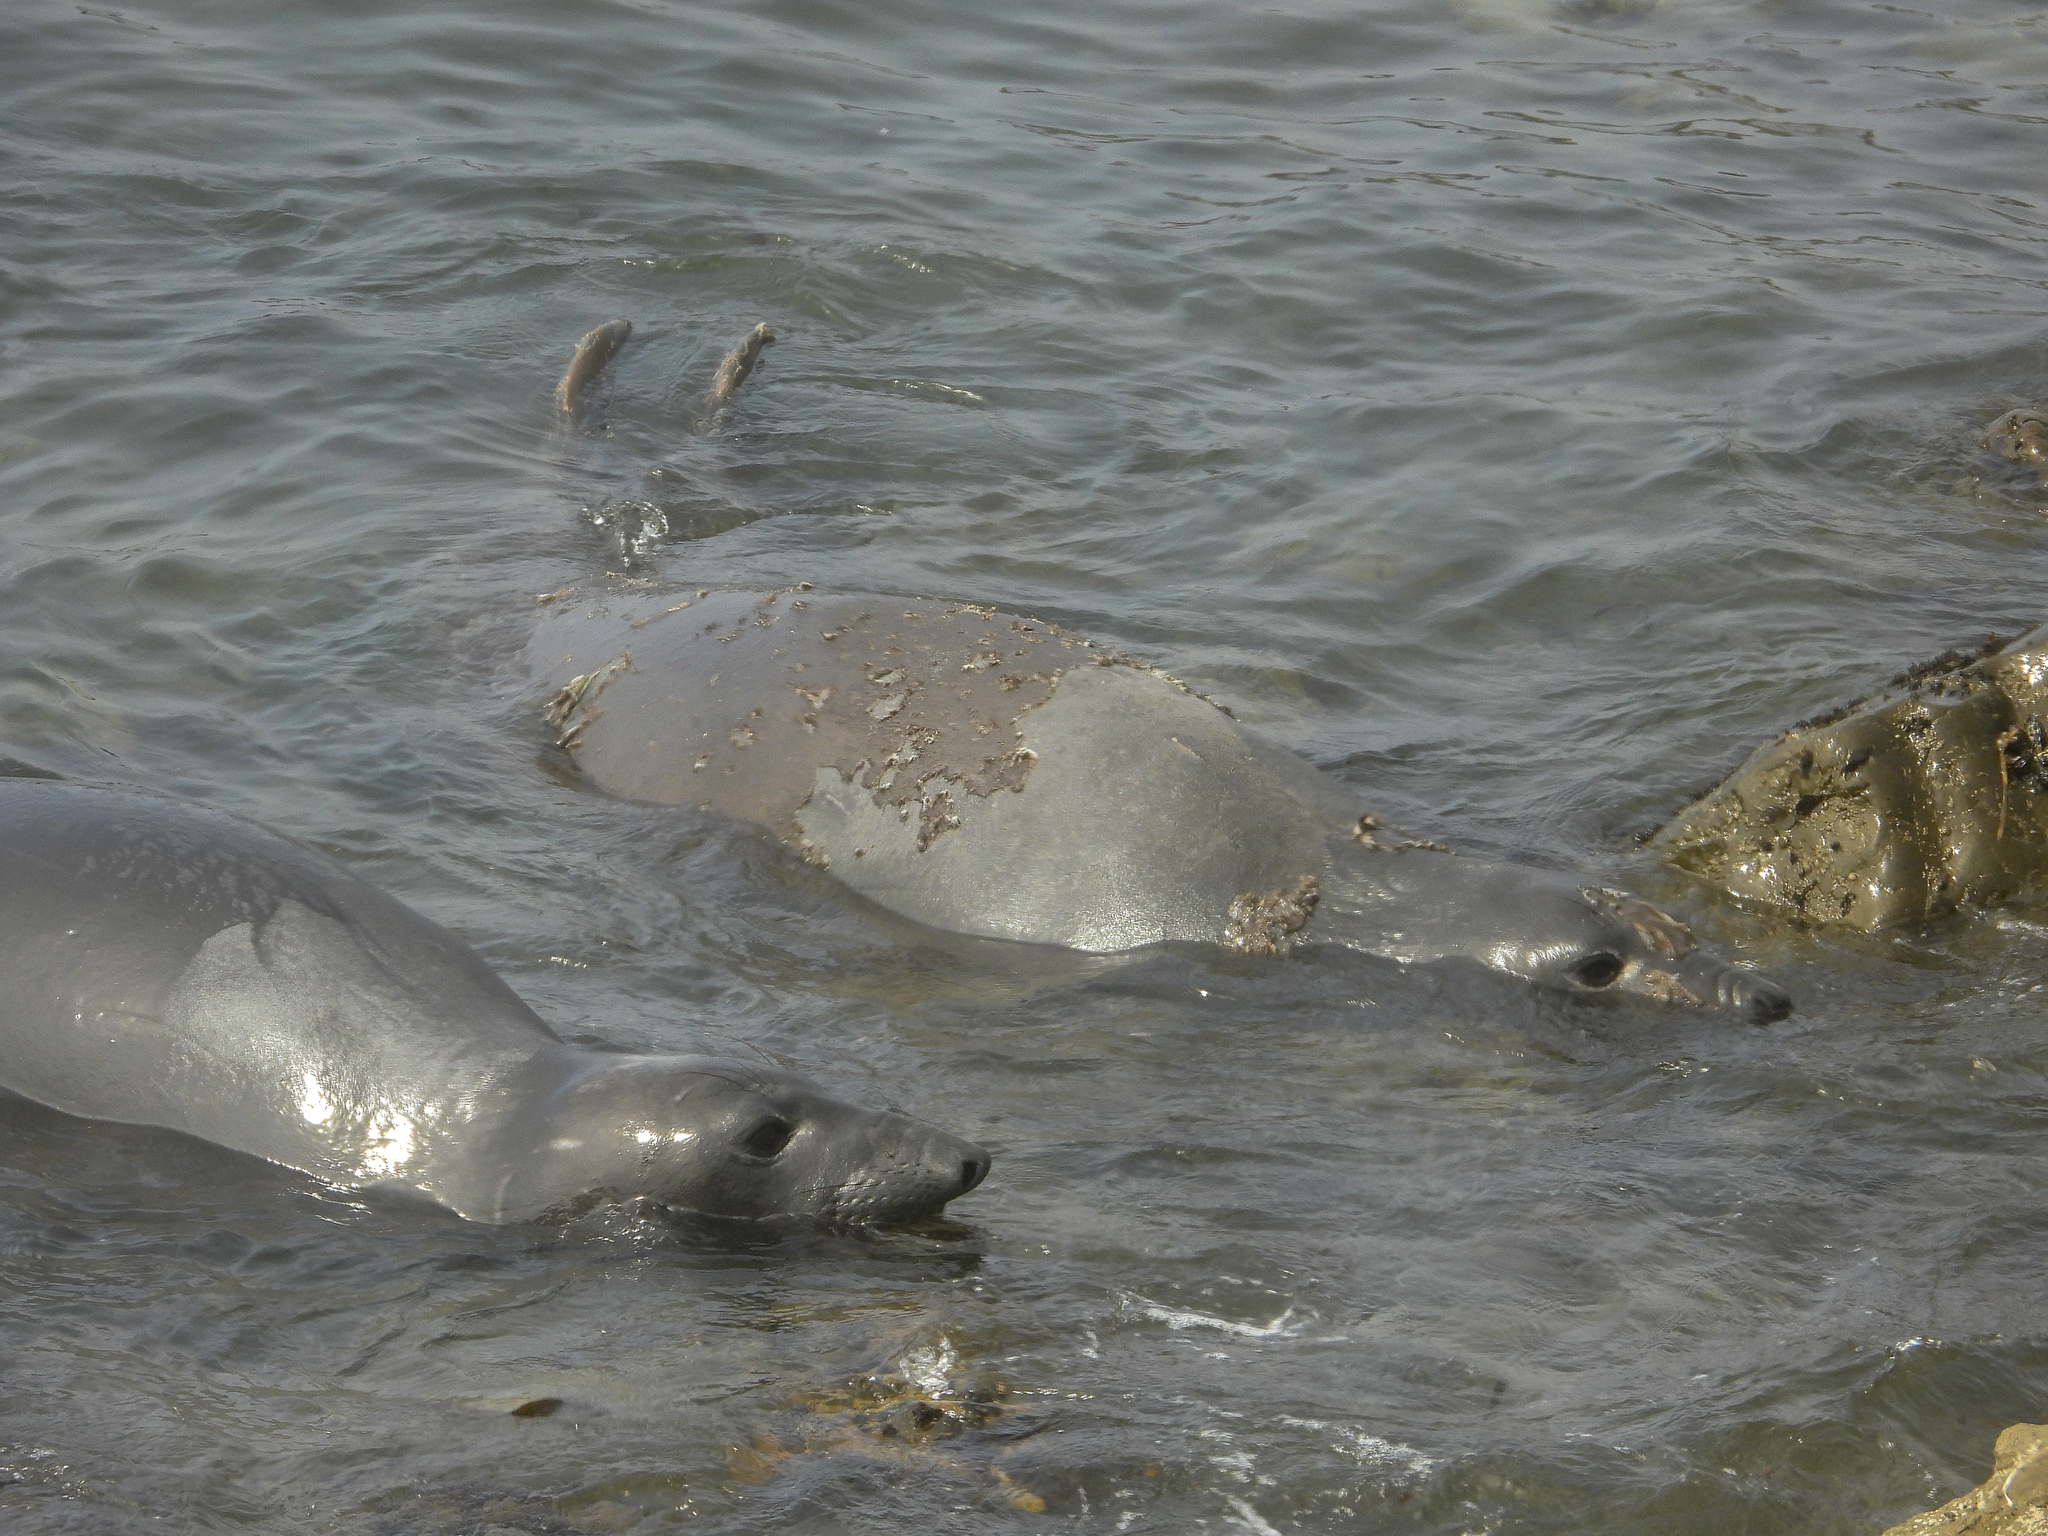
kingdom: Animalia
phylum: Chordata
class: Mammalia
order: Carnivora
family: Phocidae
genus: Mirounga
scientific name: Mirounga angustirostris
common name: Northern elephant seal
